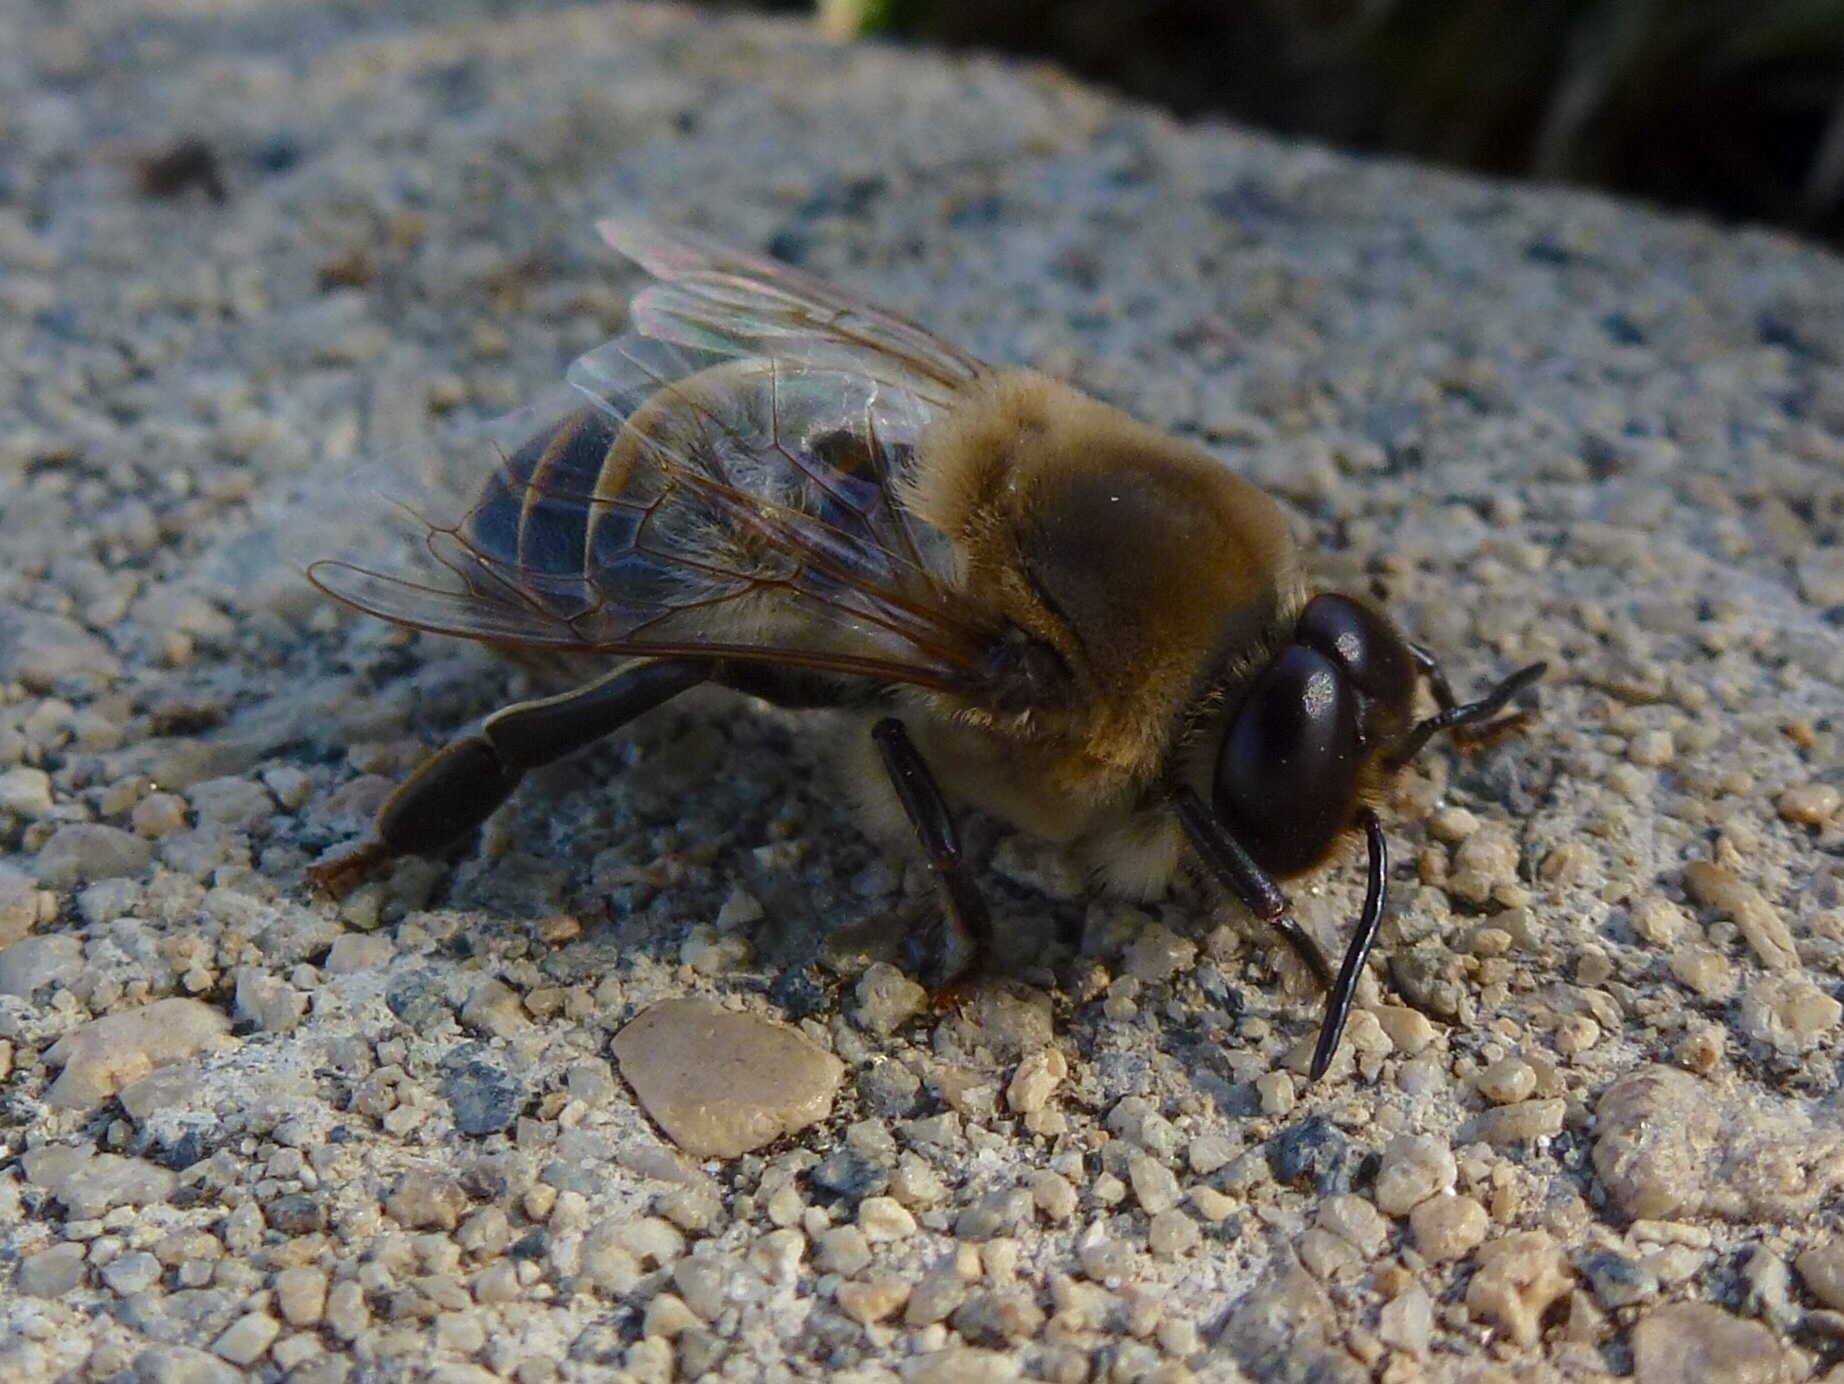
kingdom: Animalia
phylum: Arthropoda
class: Insecta
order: Hymenoptera
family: Apidae
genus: Apis
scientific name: Apis mellifera
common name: Honey bee
